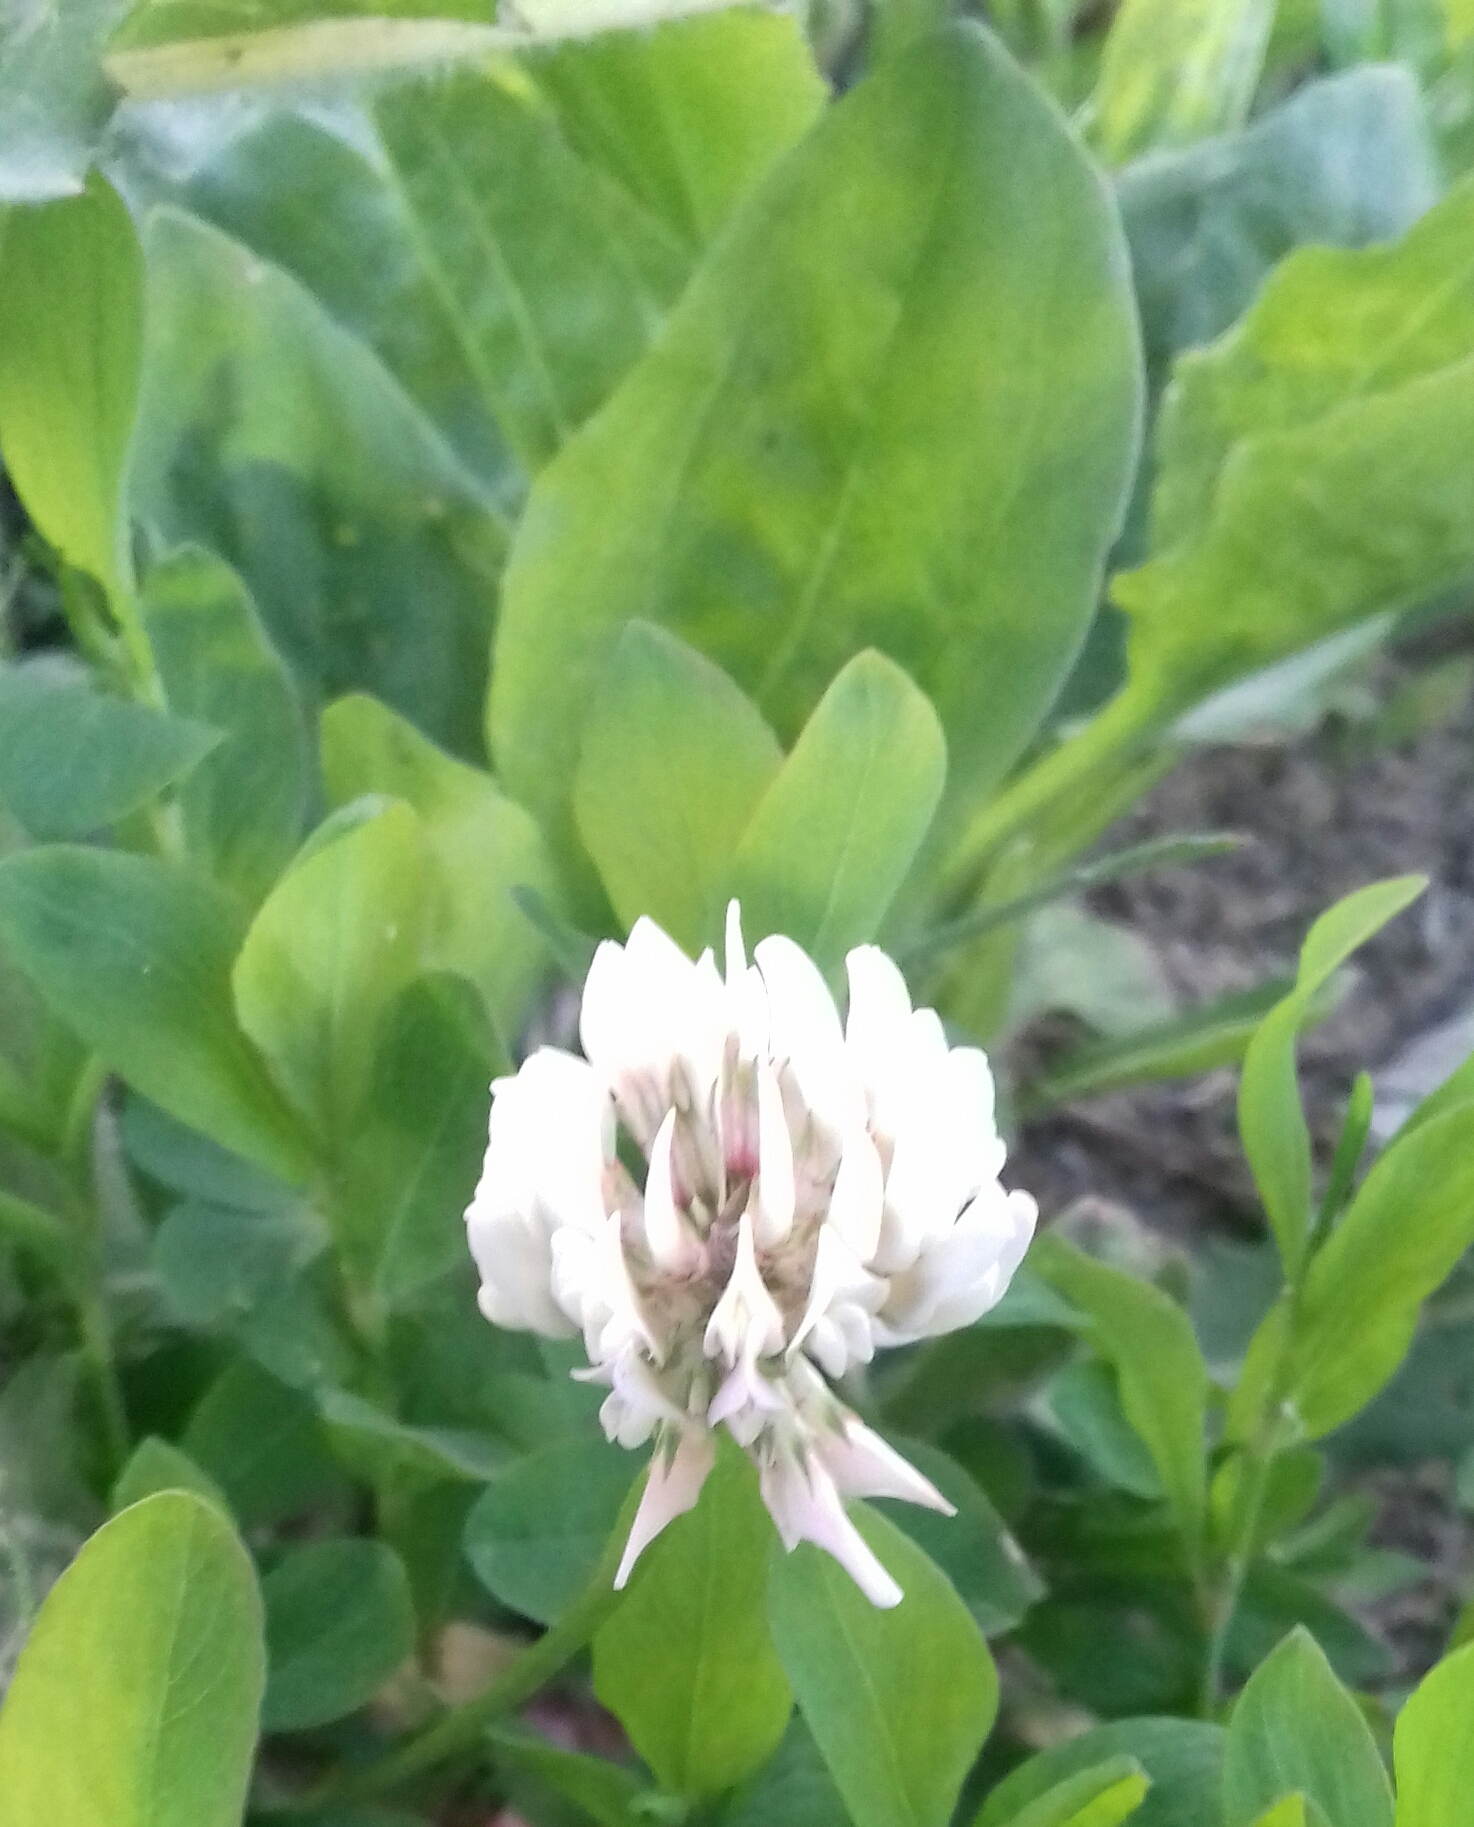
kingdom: Plantae
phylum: Tracheophyta
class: Magnoliopsida
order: Fabales
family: Fabaceae
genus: Trifolium
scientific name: Trifolium repens
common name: White clover
